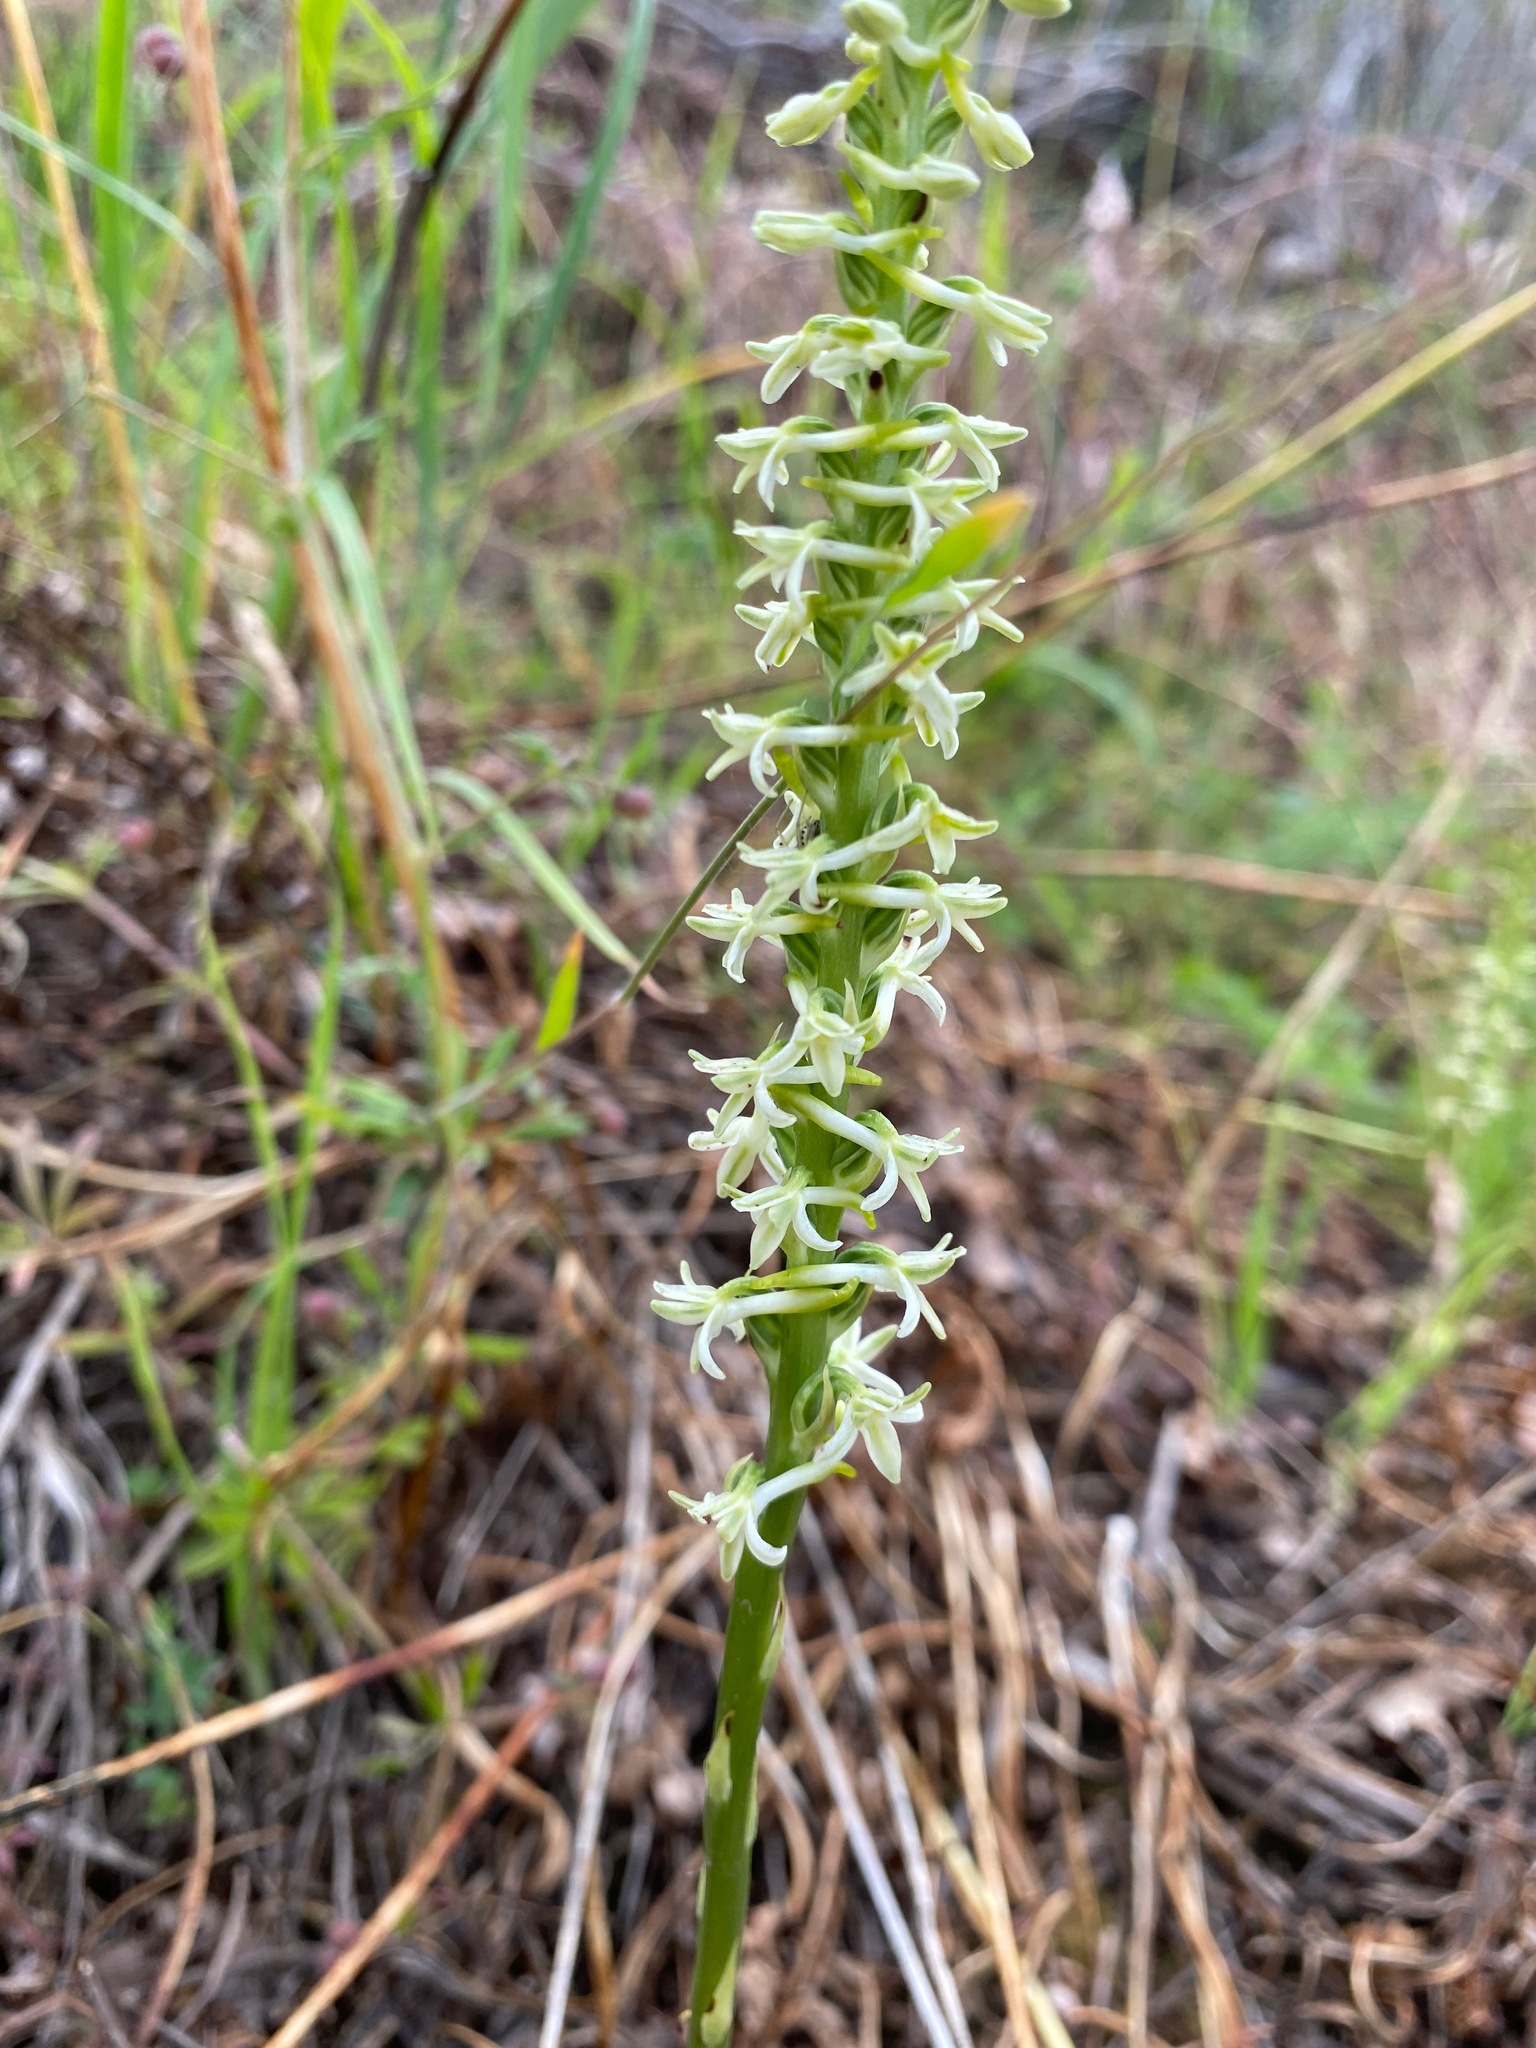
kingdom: Plantae
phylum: Tracheophyta
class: Liliopsida
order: Asparagales
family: Orchidaceae
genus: Platanthera
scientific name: Platanthera transversa
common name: Royal rein orchid
